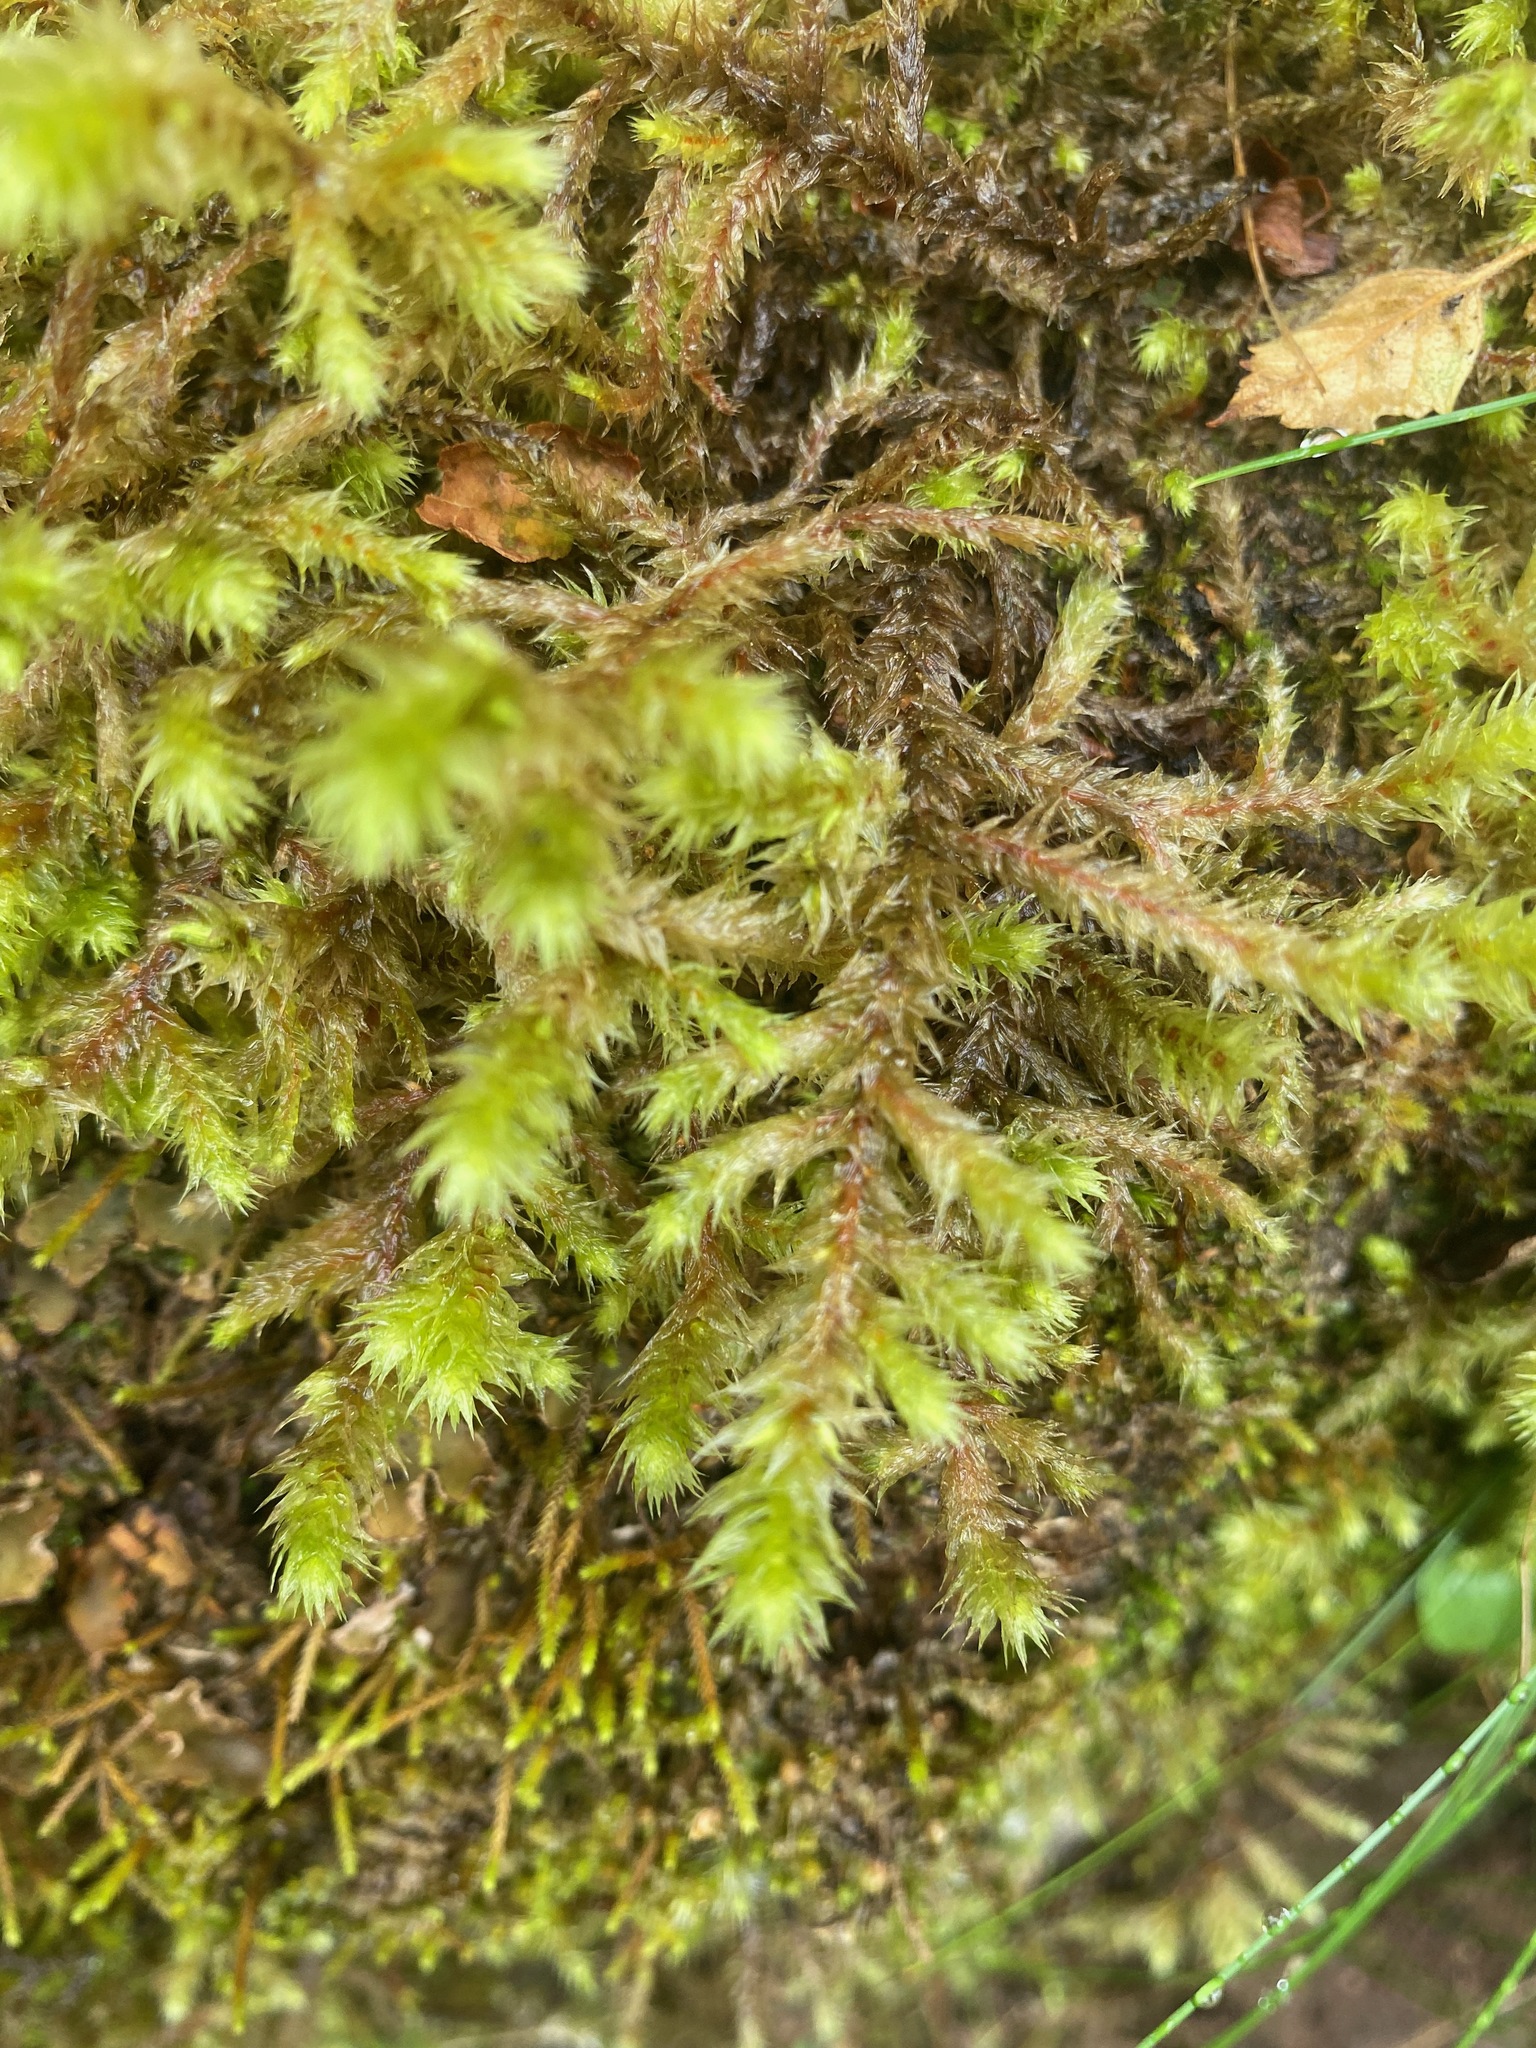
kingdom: Plantae
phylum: Bryophyta
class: Bryopsida
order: Hypnales
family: Hylocomiaceae
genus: Hylocomiadelphus
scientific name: Hylocomiadelphus triquetrus
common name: Rough goose neck moss
